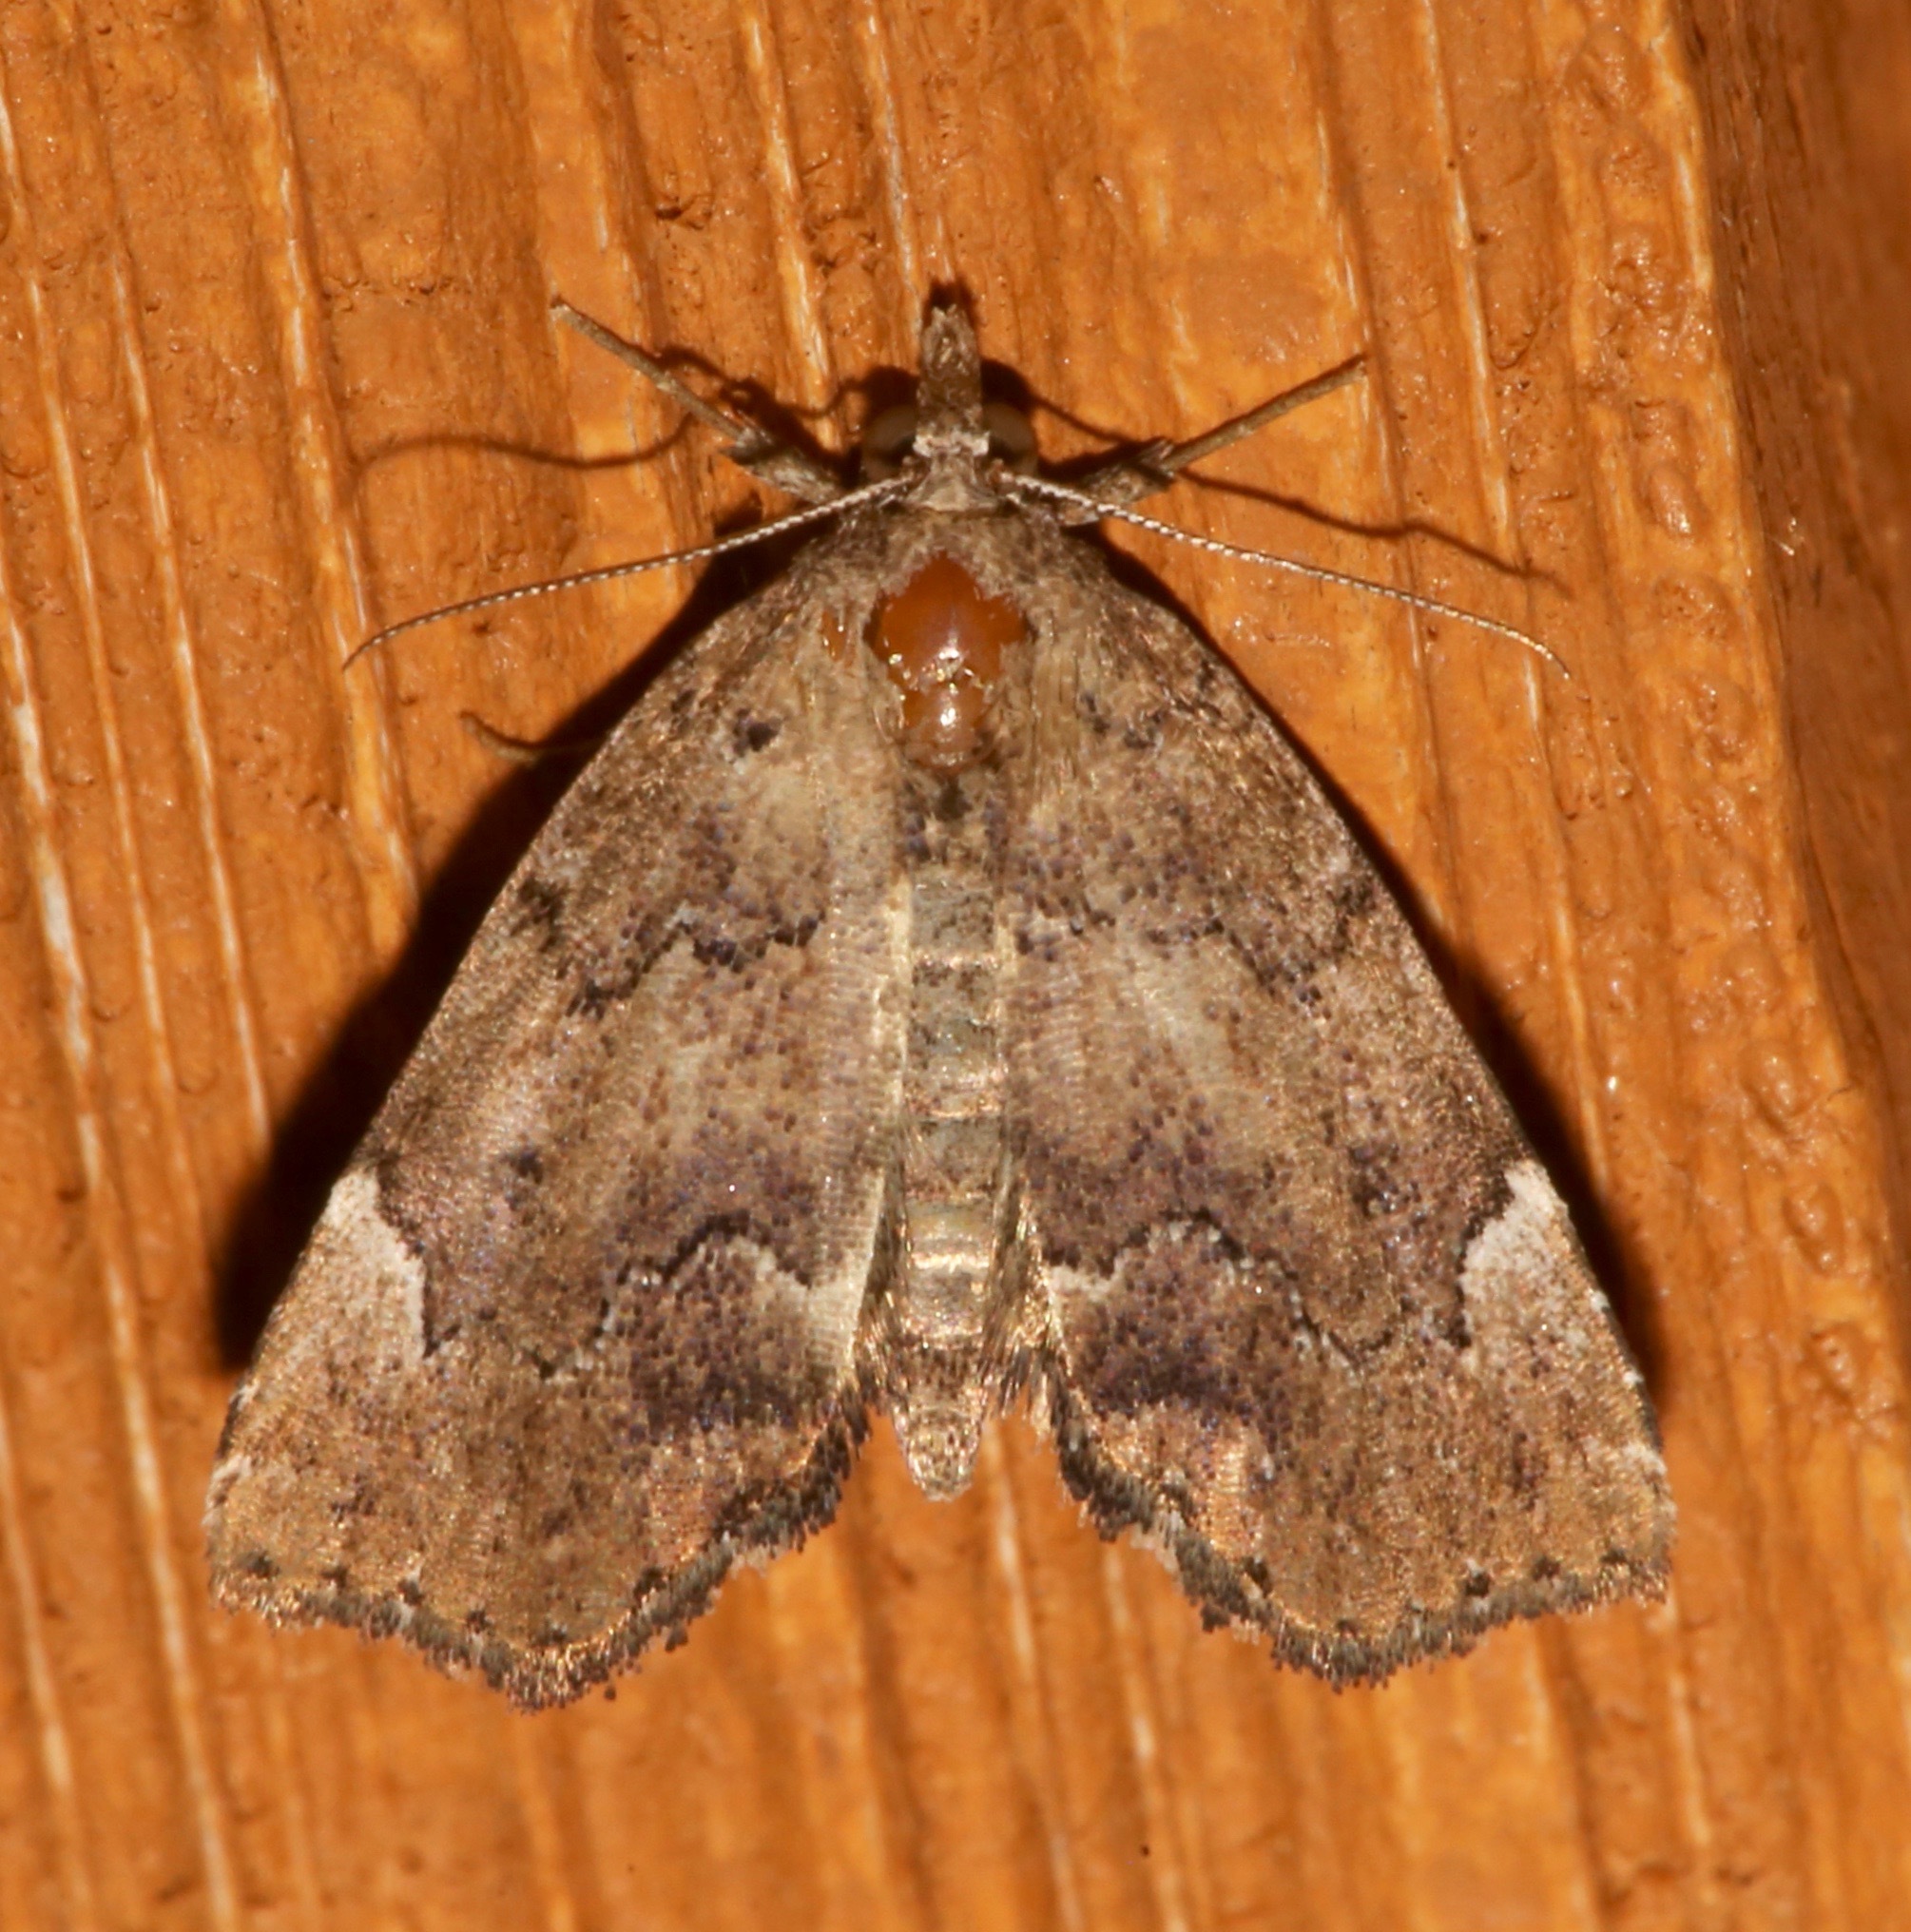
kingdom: Animalia
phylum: Arthropoda
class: Insecta
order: Lepidoptera
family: Erebidae
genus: Cutina
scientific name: Cutina aluticolor
